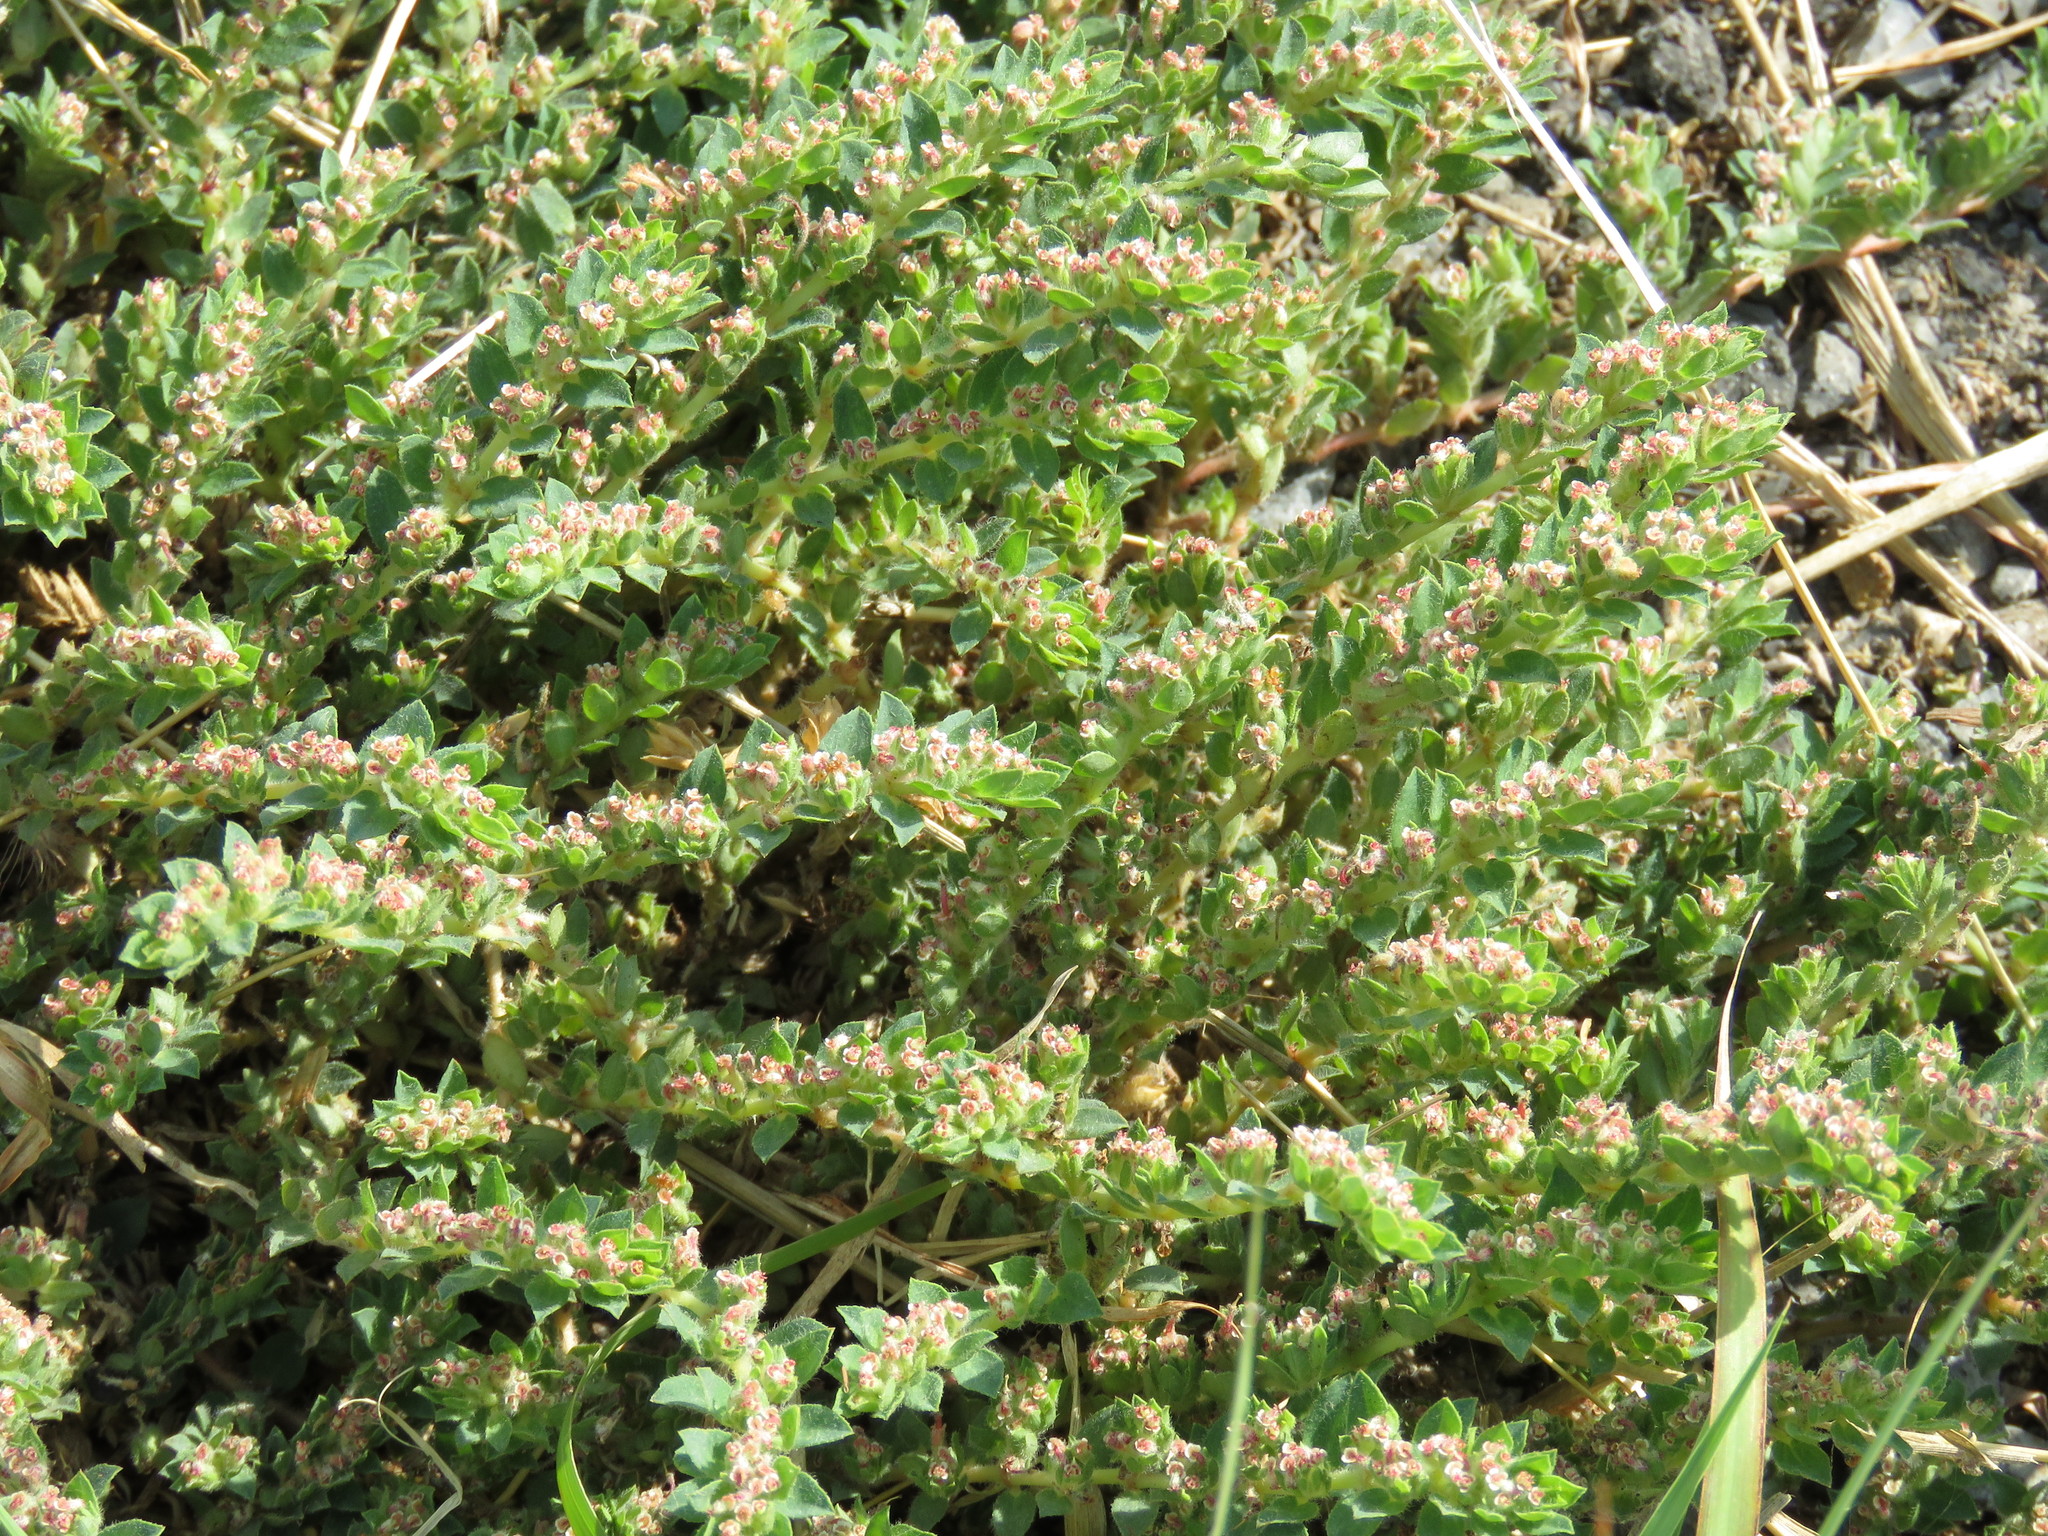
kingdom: Plantae
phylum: Tracheophyta
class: Magnoliopsida
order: Malpighiales
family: Euphorbiaceae
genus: Euphorbia
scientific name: Euphorbia velleriflora
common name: Caliche sandmat
